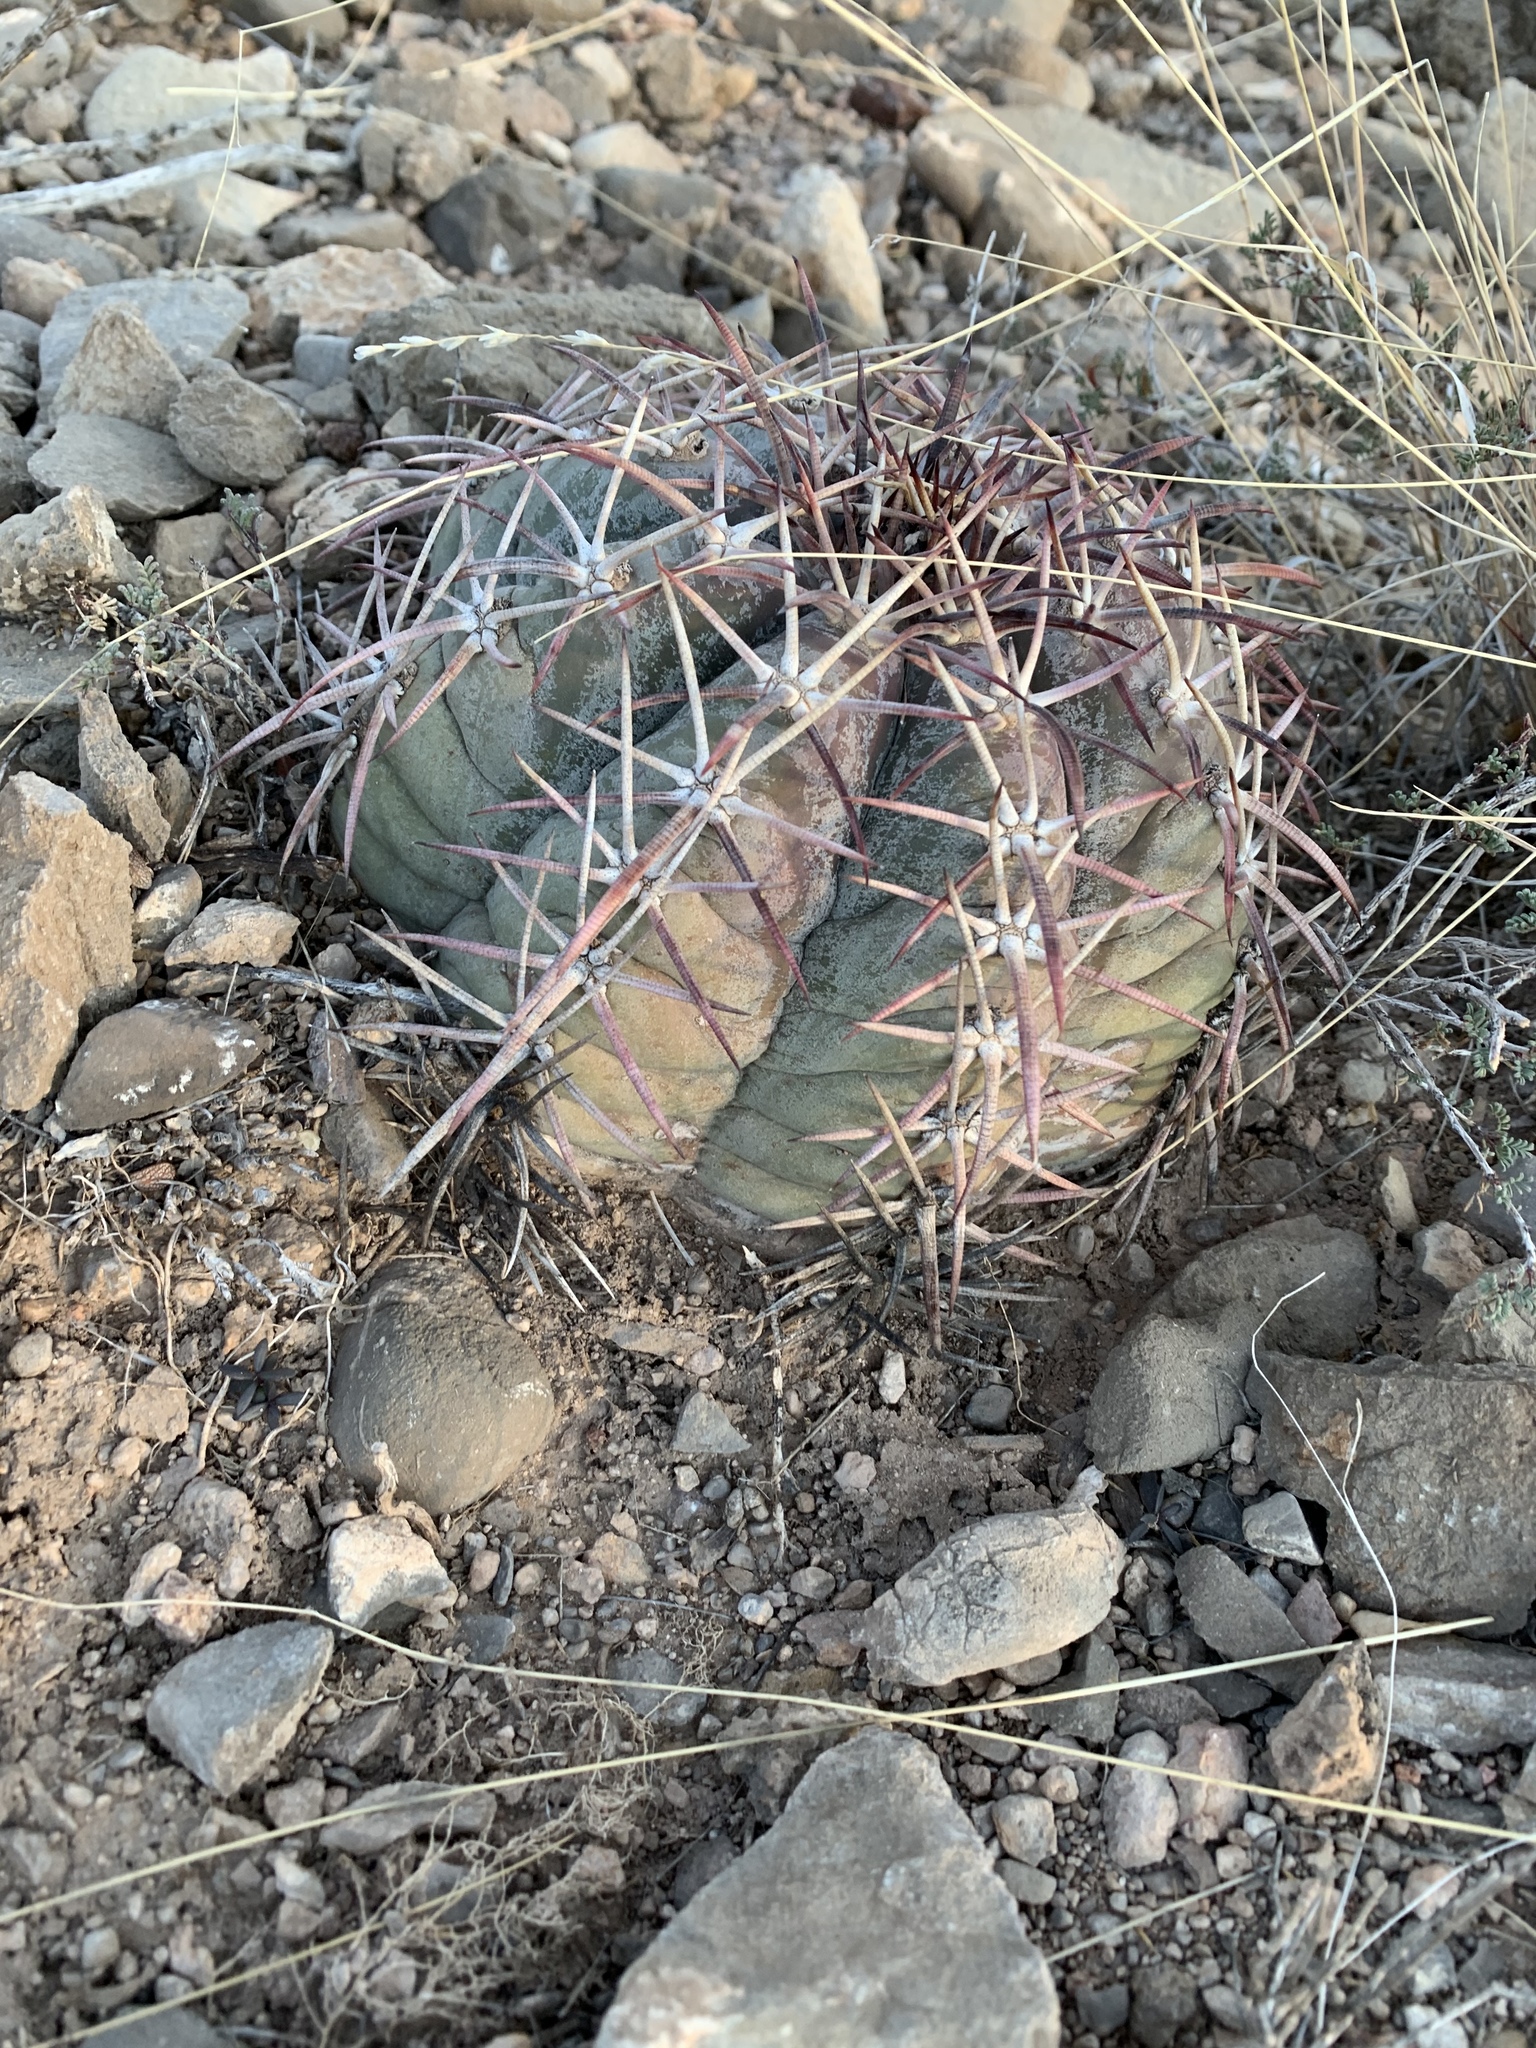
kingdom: Plantae
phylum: Tracheophyta
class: Magnoliopsida
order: Caryophyllales
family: Cactaceae
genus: Echinocactus
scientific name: Echinocactus horizonthalonius
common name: Devilshead
